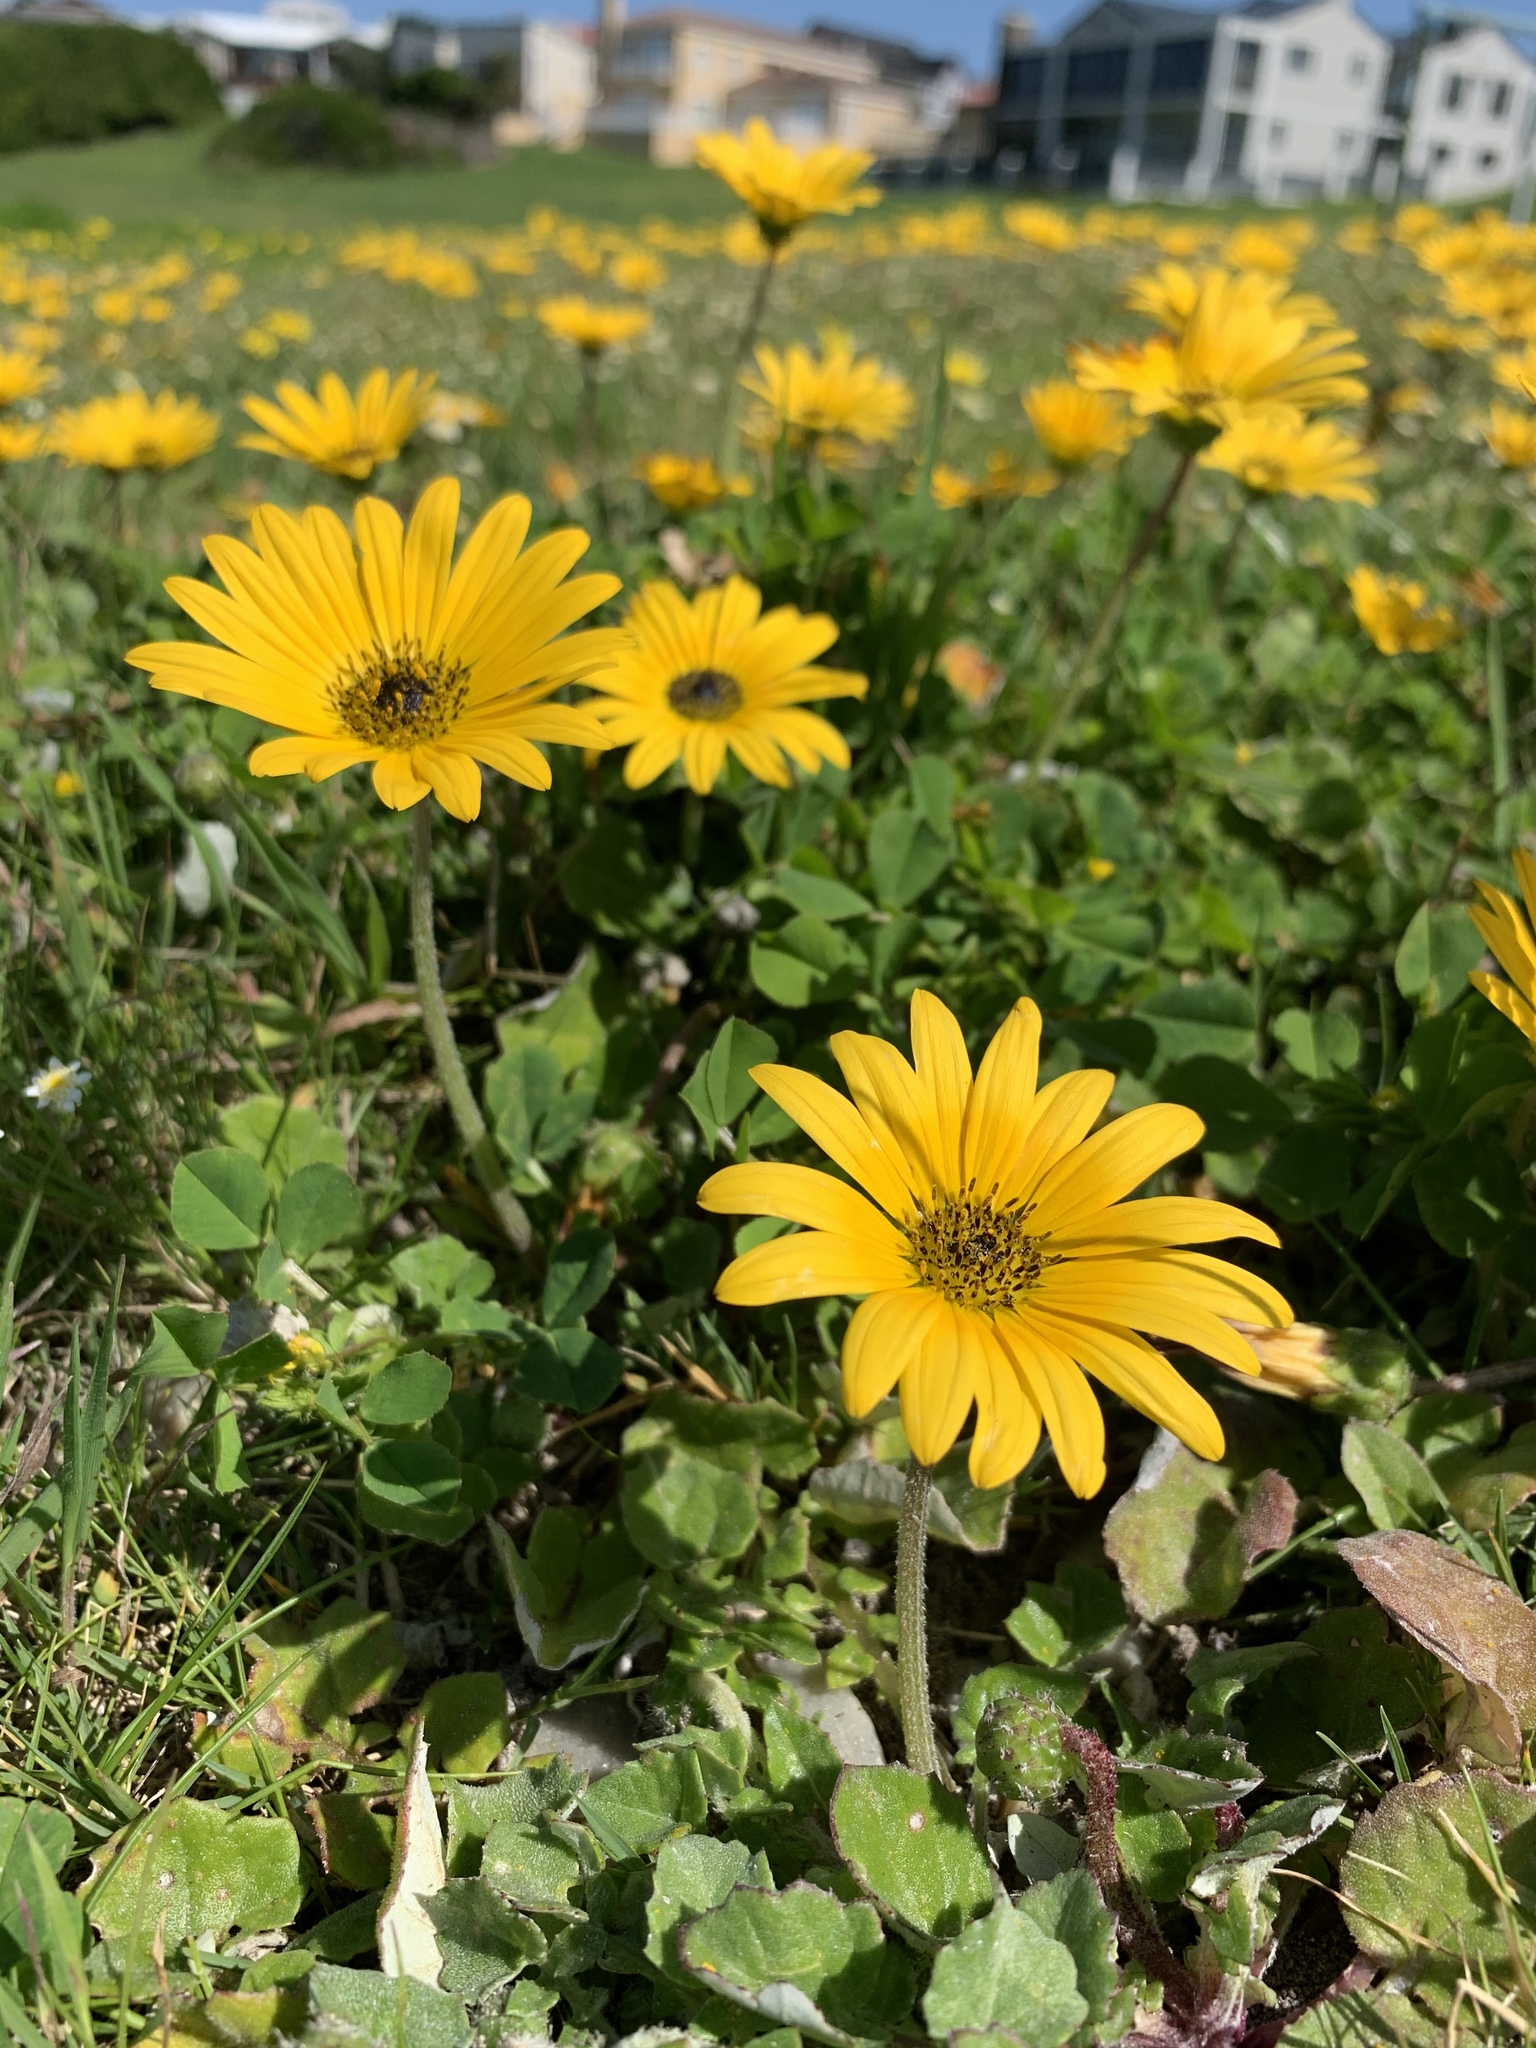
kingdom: Plantae
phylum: Tracheophyta
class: Magnoliopsida
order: Asterales
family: Asteraceae
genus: Arctotheca
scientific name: Arctotheca prostrata
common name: Capeweed
